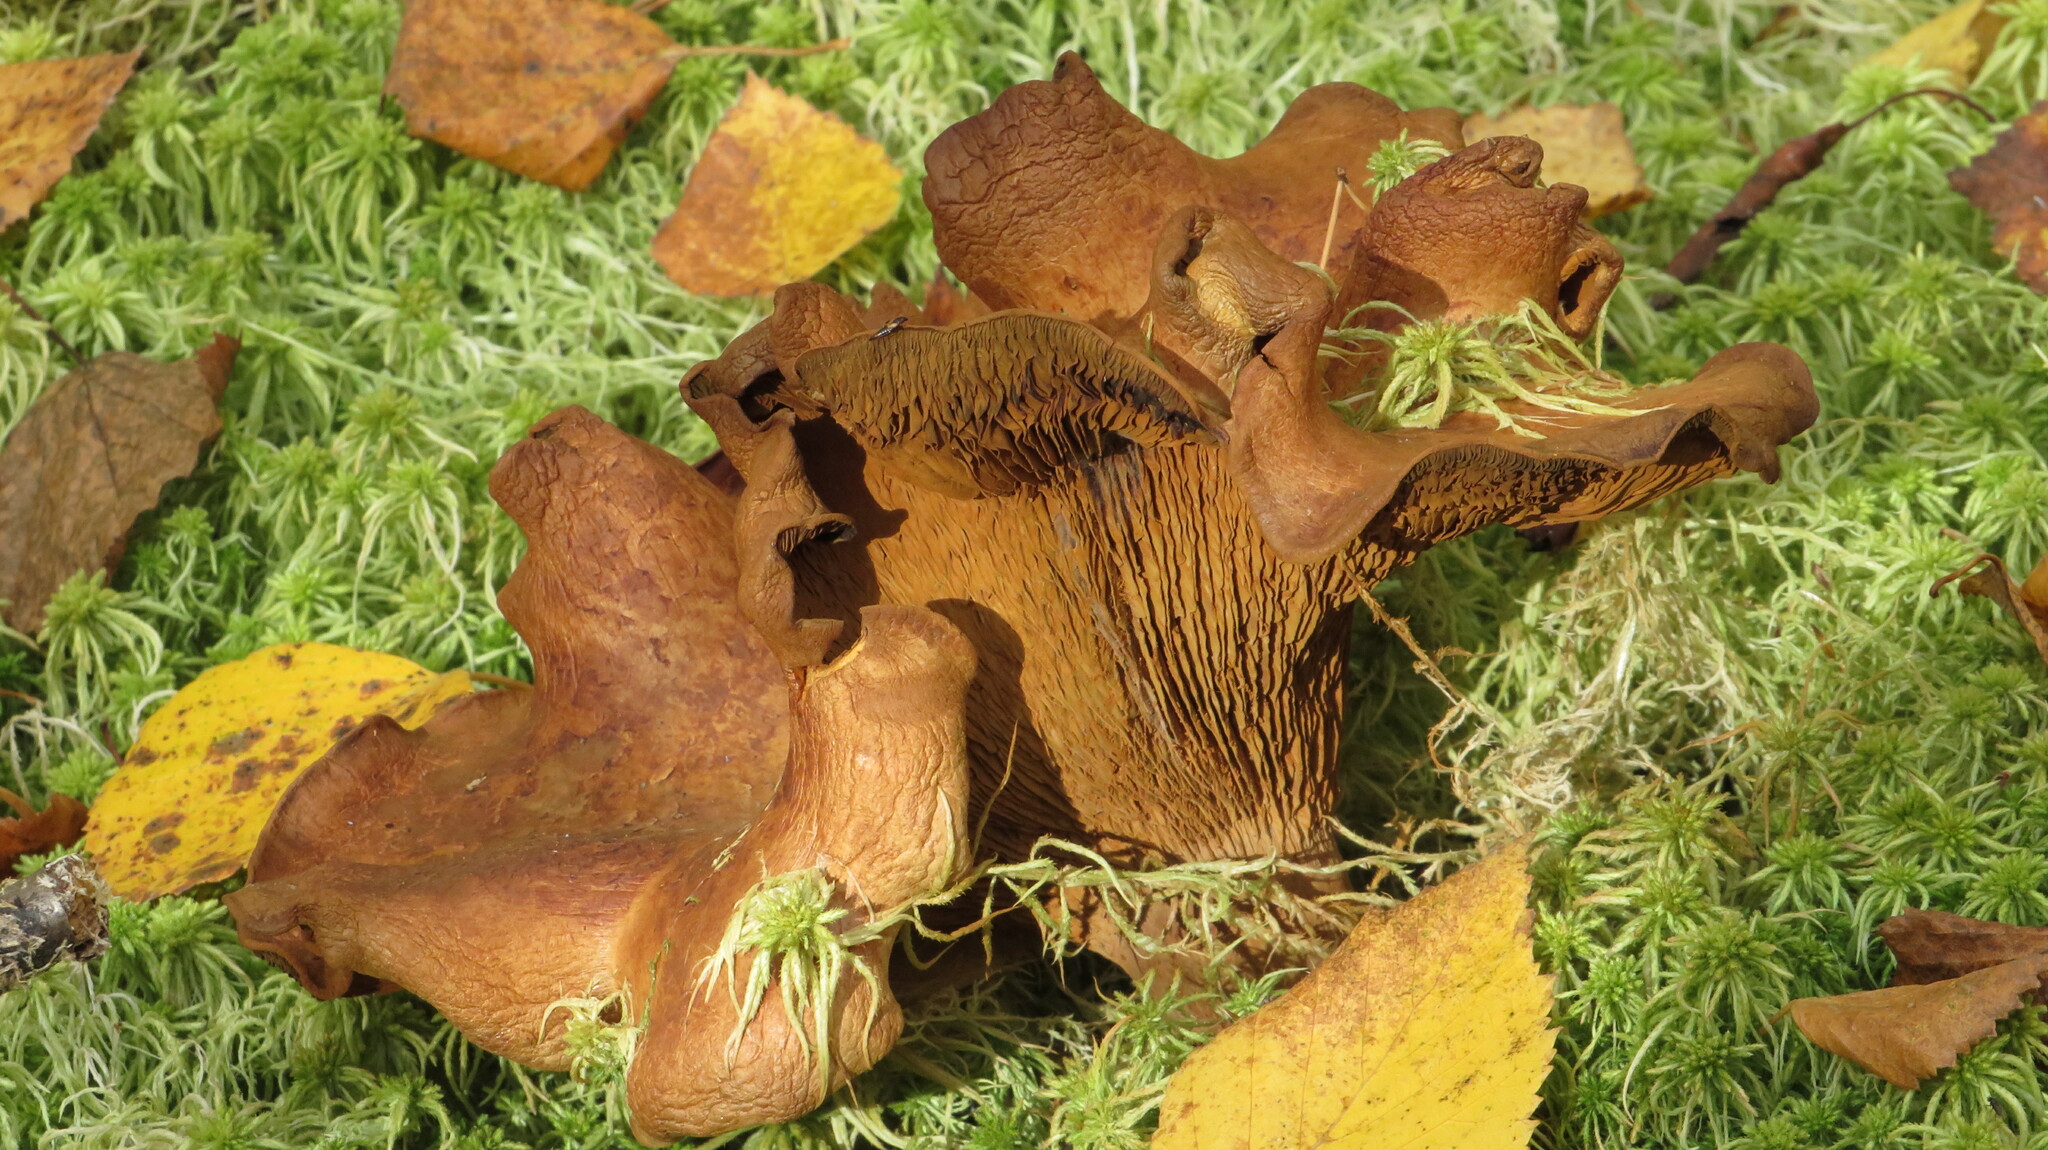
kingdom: Fungi
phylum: Basidiomycota
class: Agaricomycetes
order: Boletales
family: Paxillaceae
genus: Paxillus
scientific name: Paxillus involutus
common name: Brown roll rim
